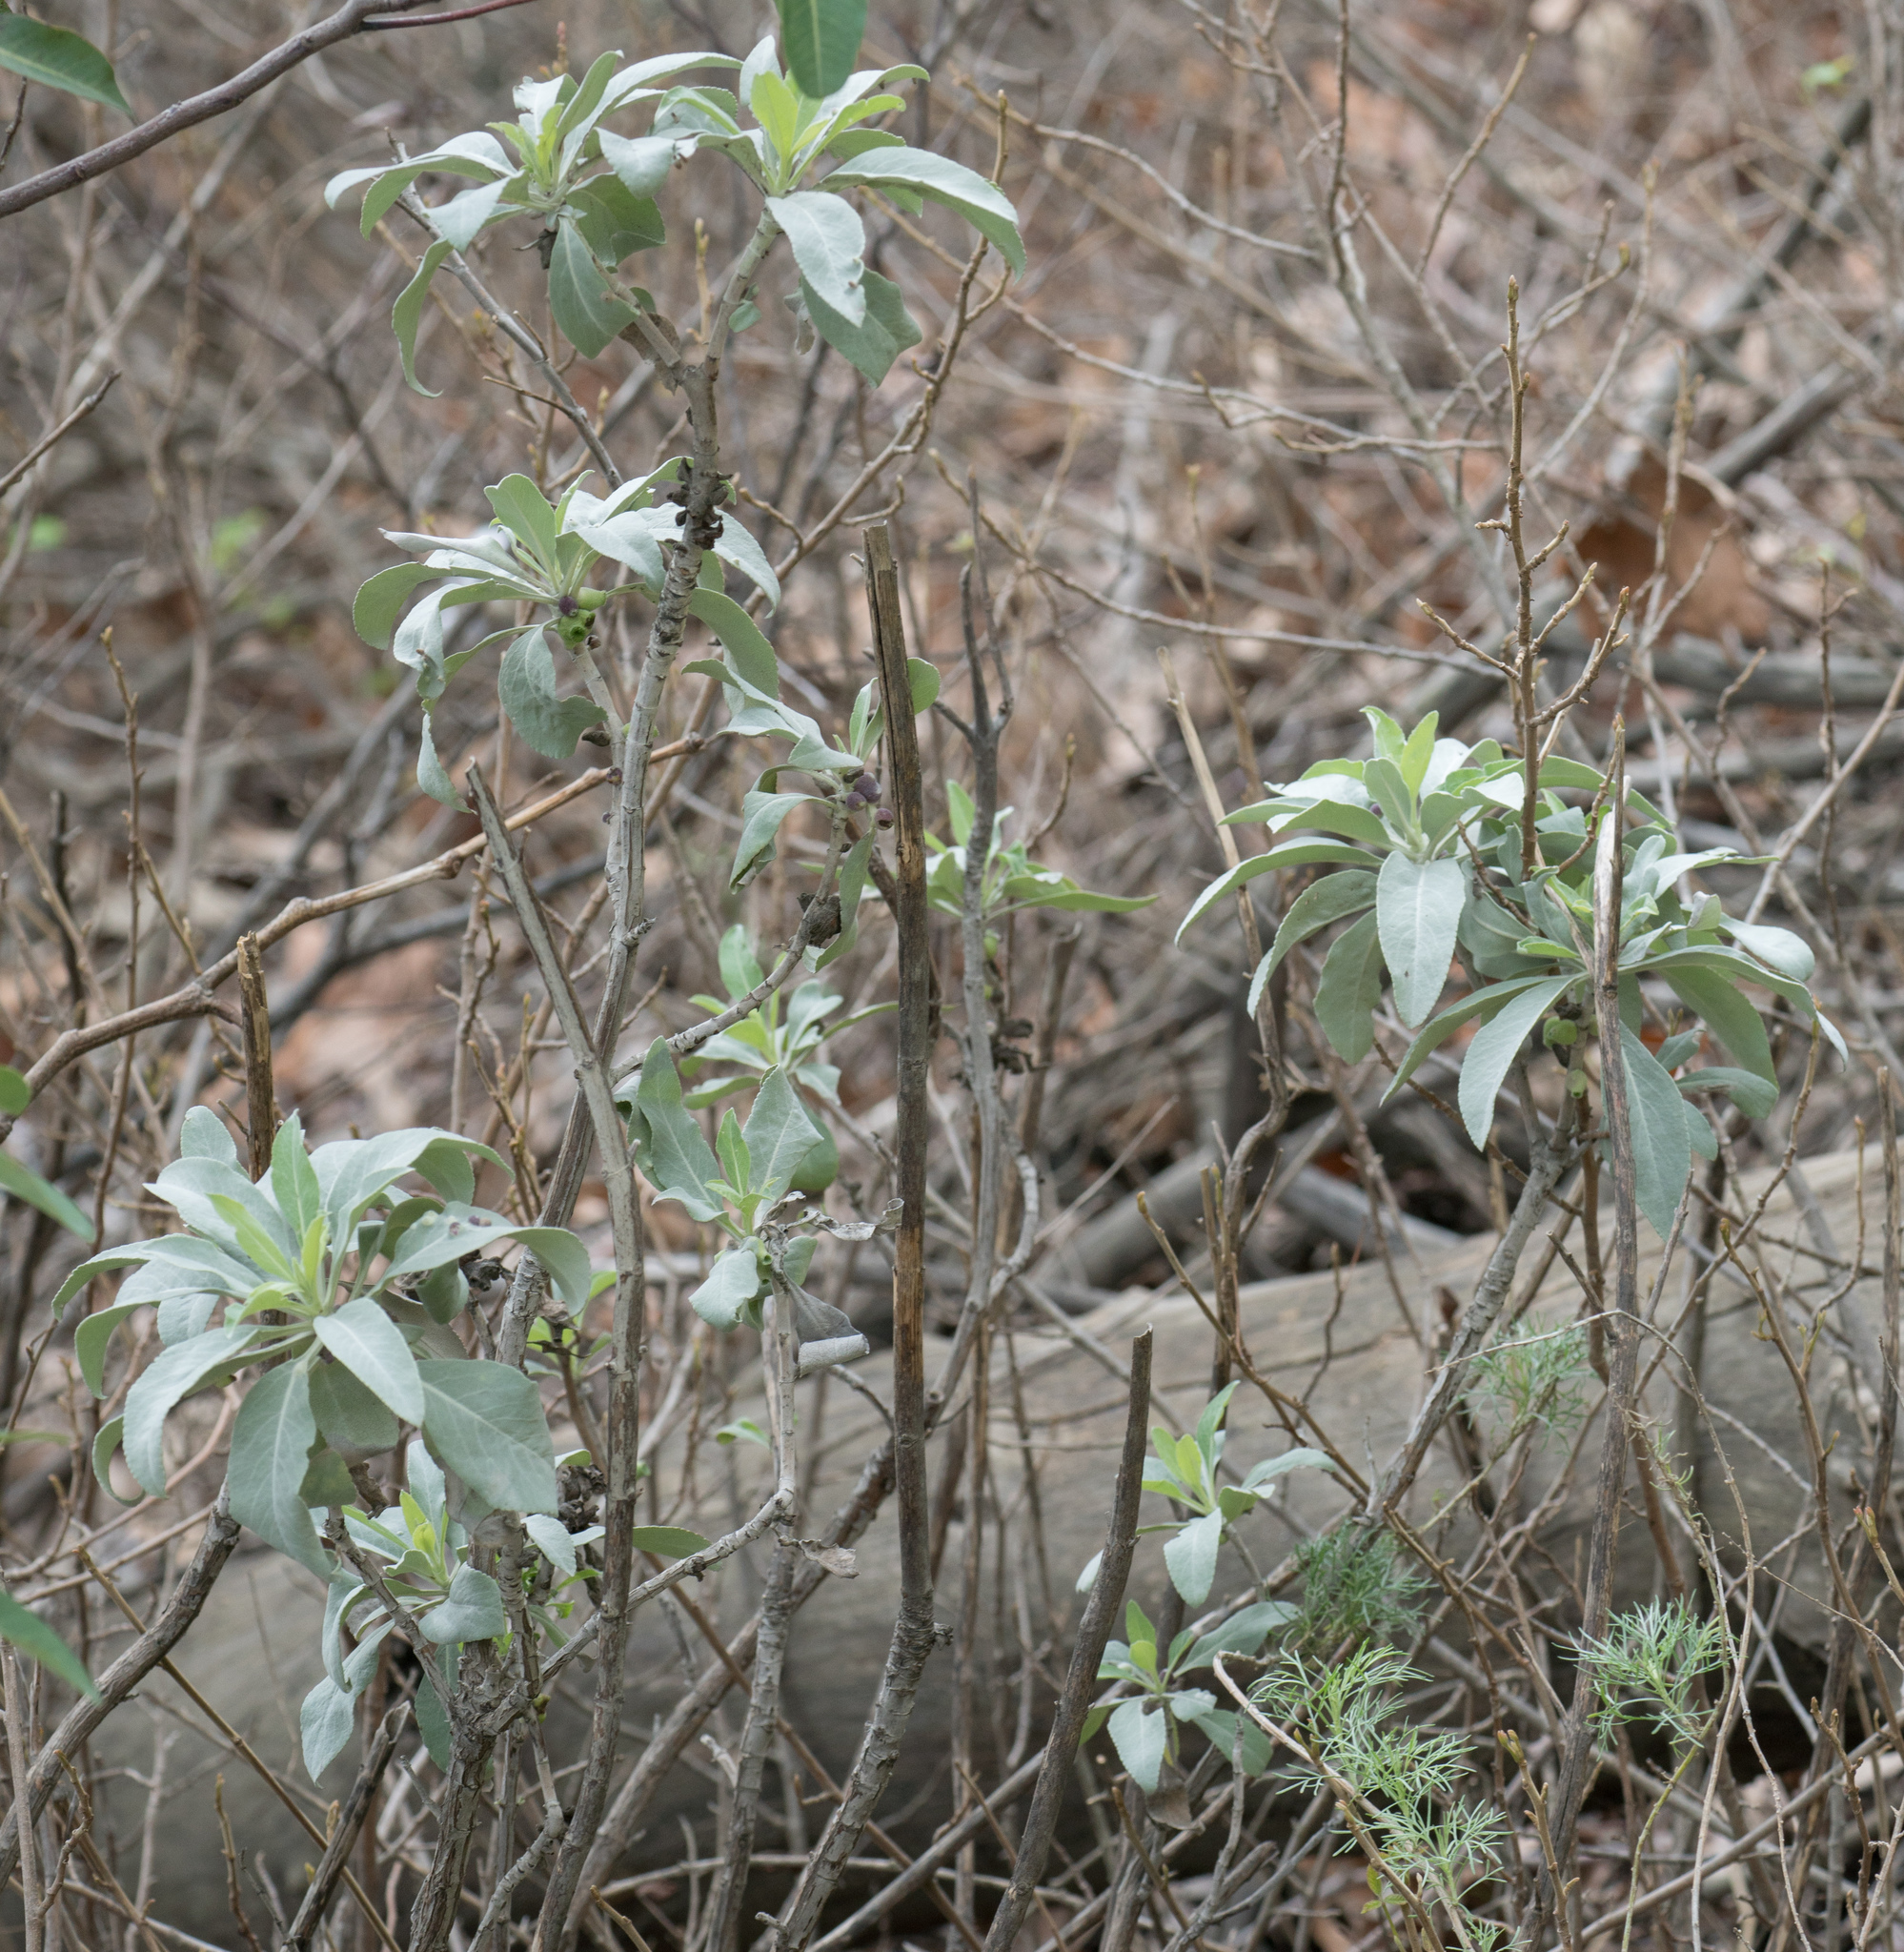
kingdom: Plantae
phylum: Tracheophyta
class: Magnoliopsida
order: Lamiales
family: Lamiaceae
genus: Salvia
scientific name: Salvia apiana
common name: White sage
